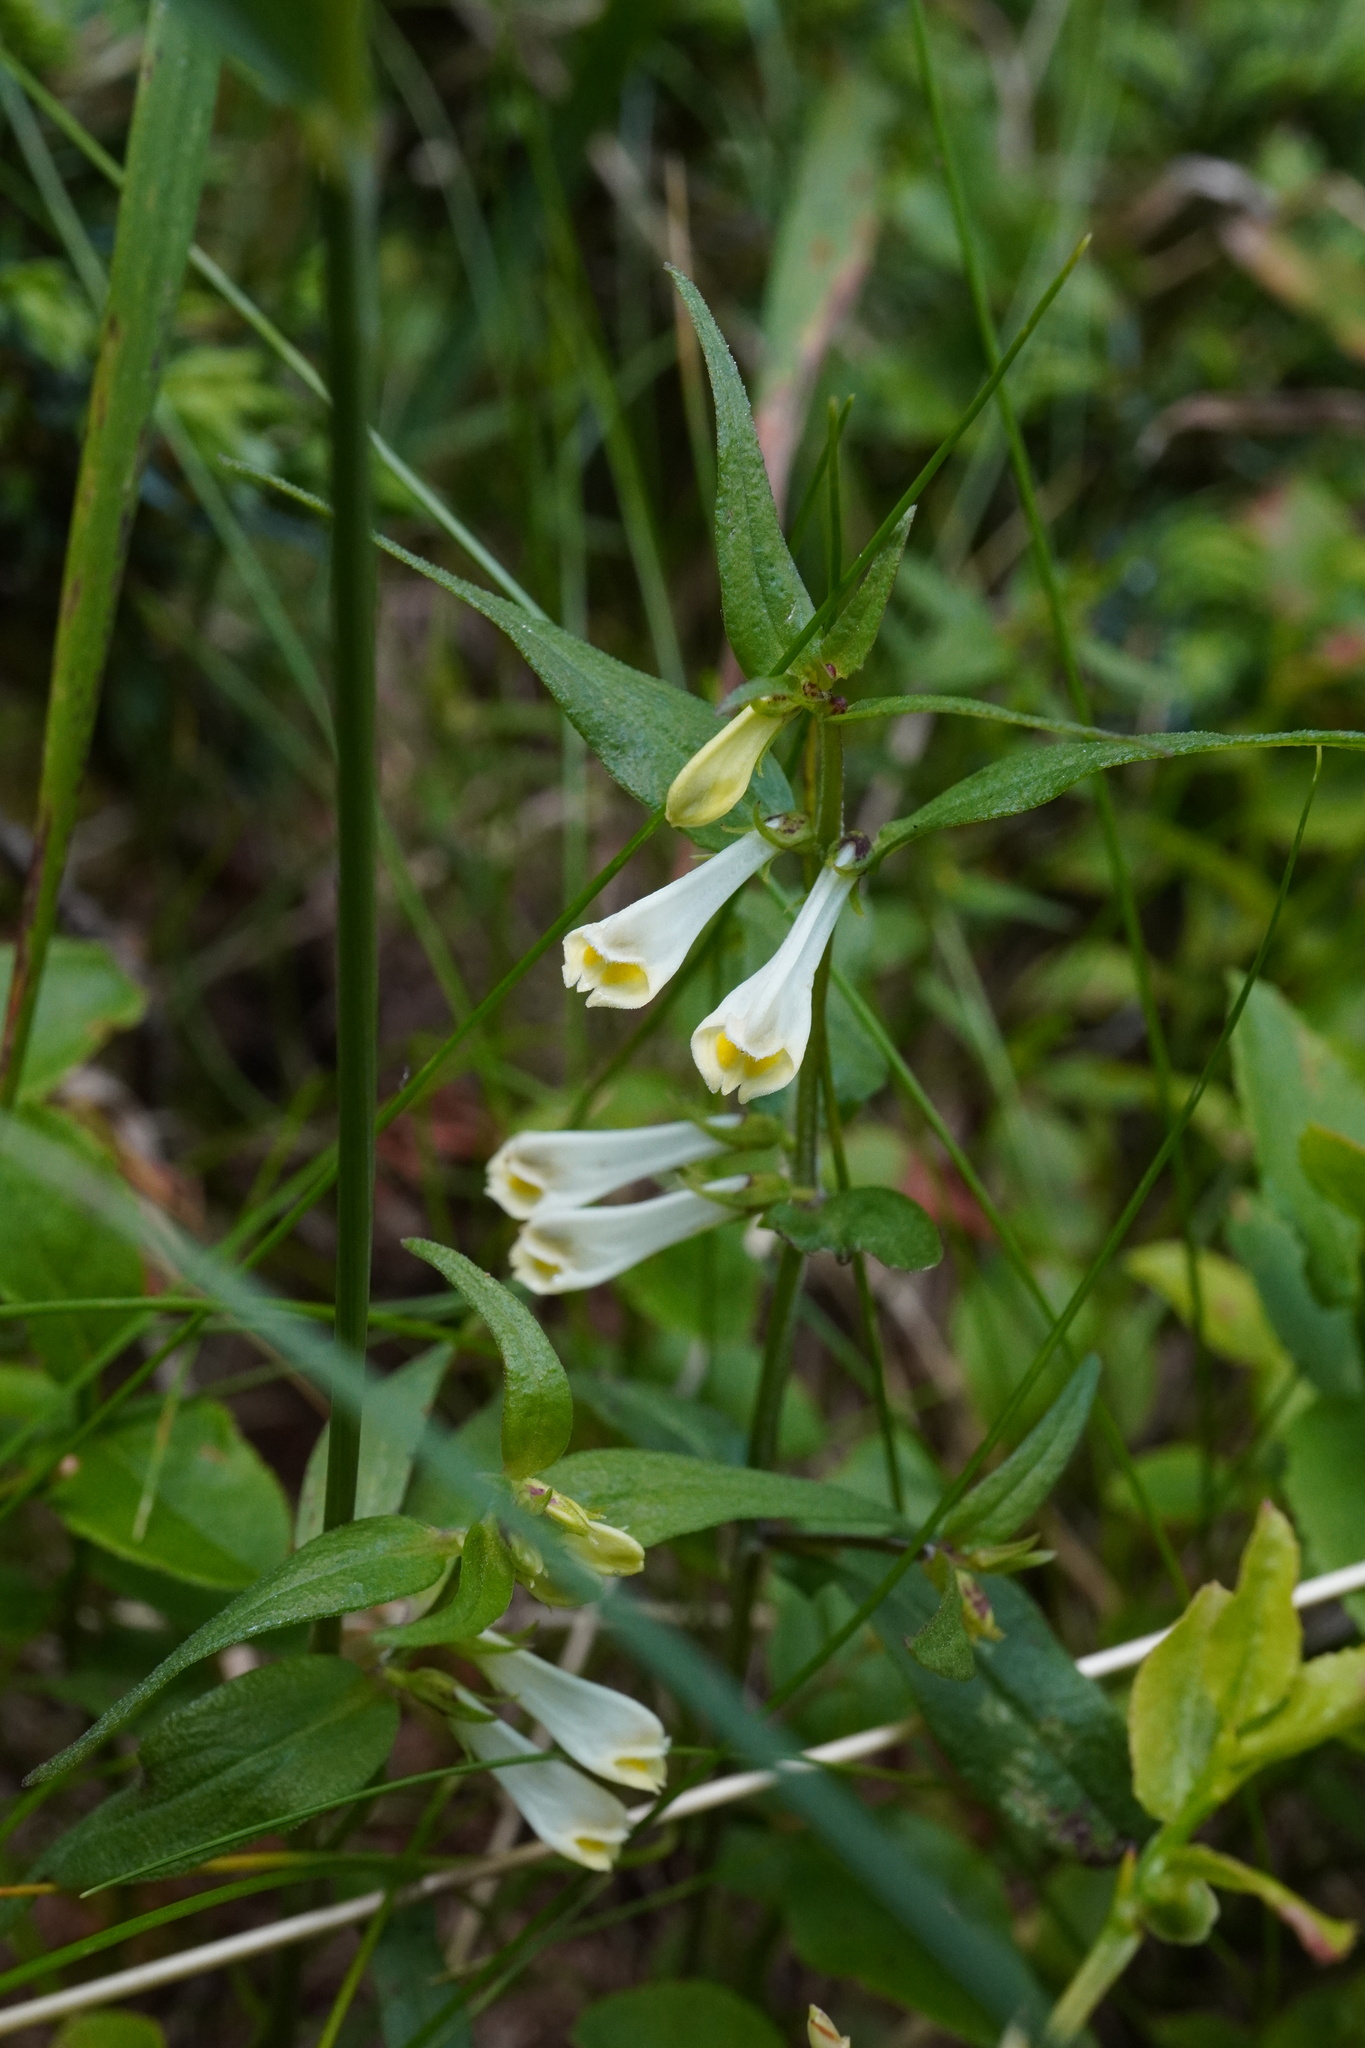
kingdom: Plantae
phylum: Tracheophyta
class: Magnoliopsida
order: Lamiales
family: Orobanchaceae
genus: Melampyrum
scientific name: Melampyrum pratense
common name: Common cow-wheat
